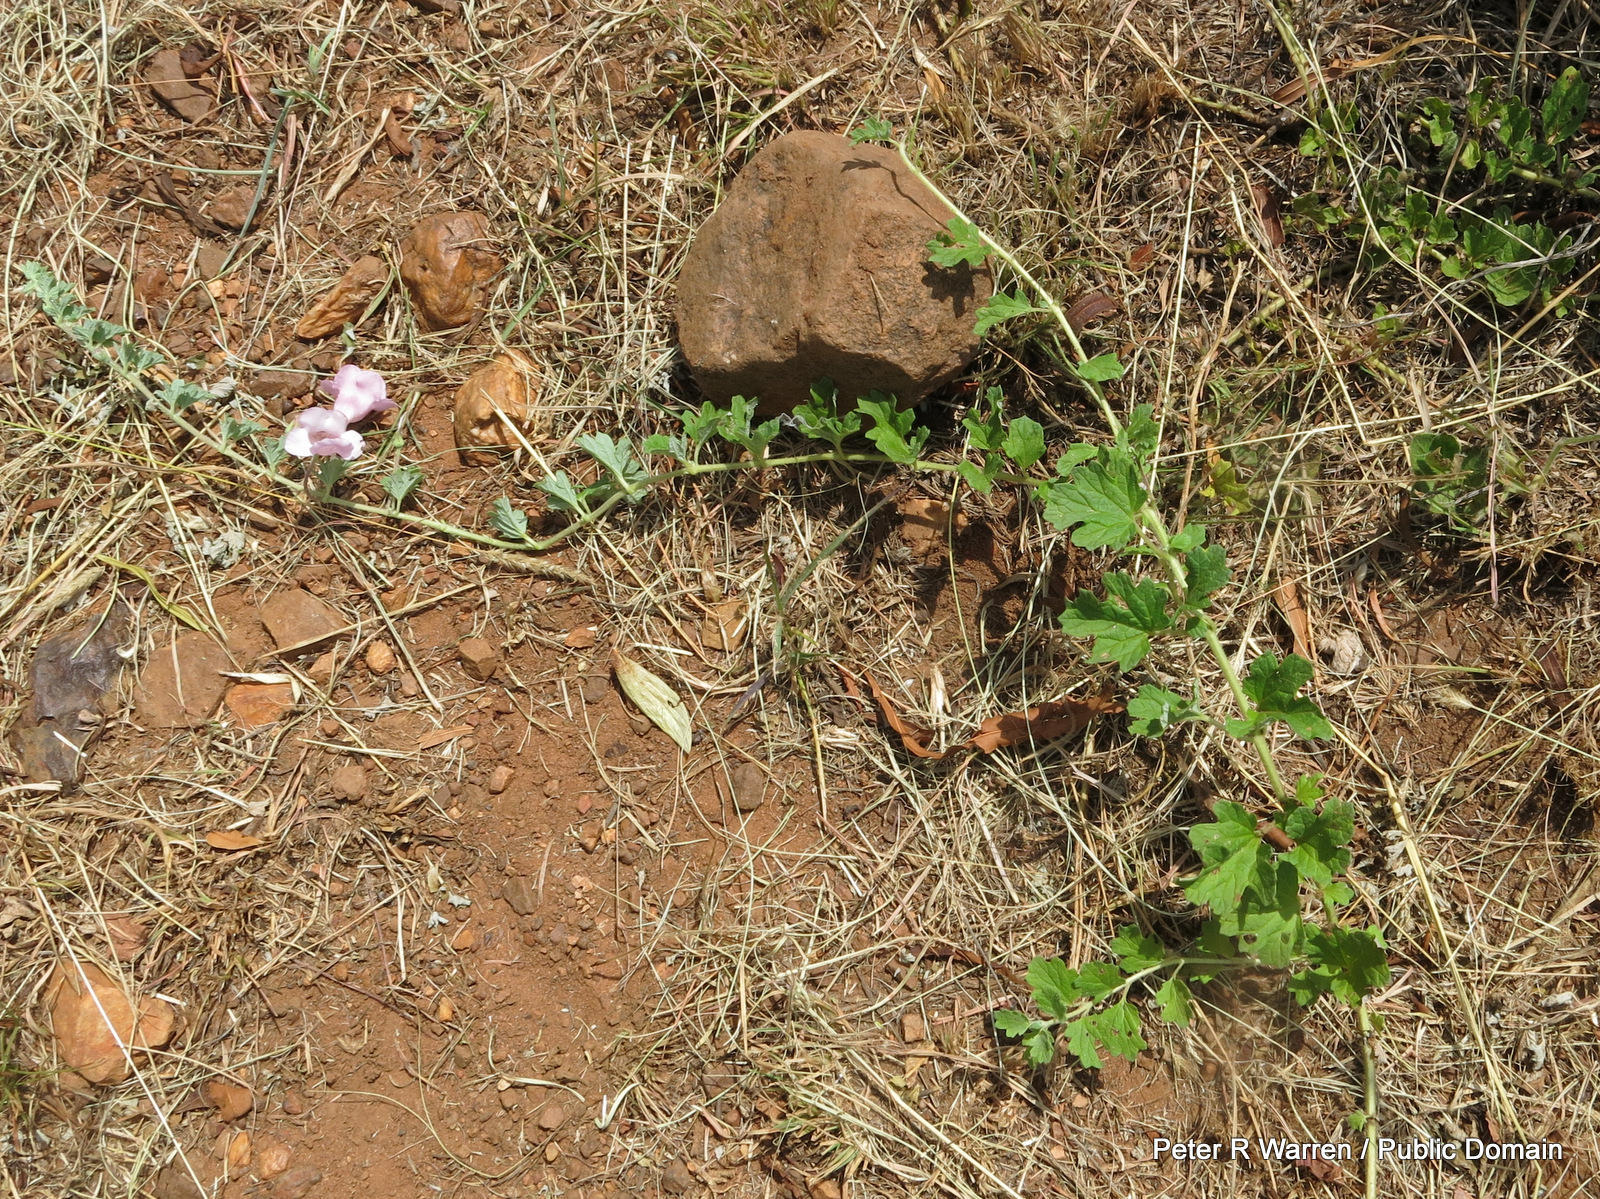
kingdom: Plantae
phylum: Tracheophyta
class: Magnoliopsida
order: Lamiales
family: Pedaliaceae
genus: Dicerocaryum
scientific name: Dicerocaryum senecioides
